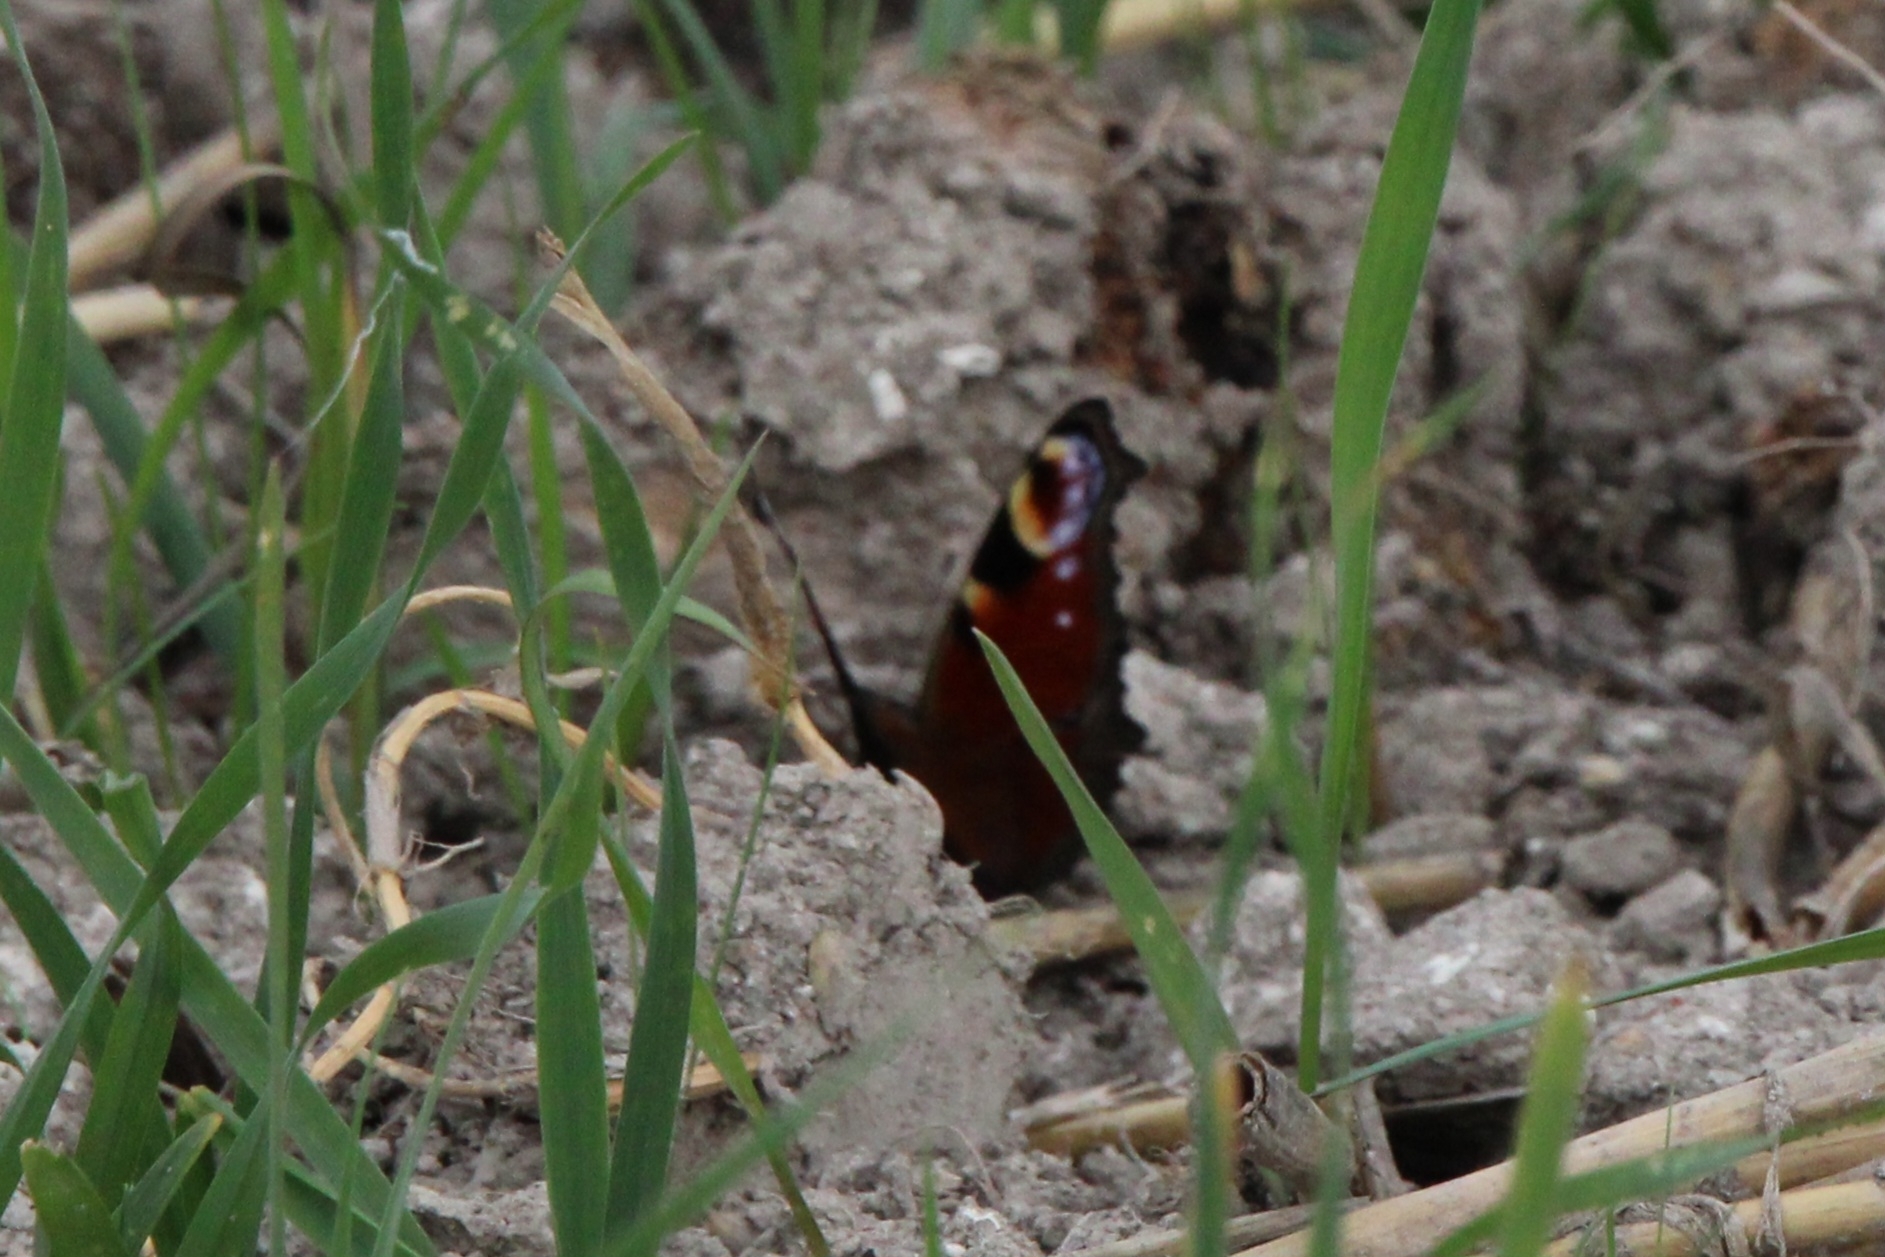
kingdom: Animalia
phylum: Arthropoda
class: Insecta
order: Lepidoptera
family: Nymphalidae
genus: Aglais
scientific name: Aglais io
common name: Peacock
